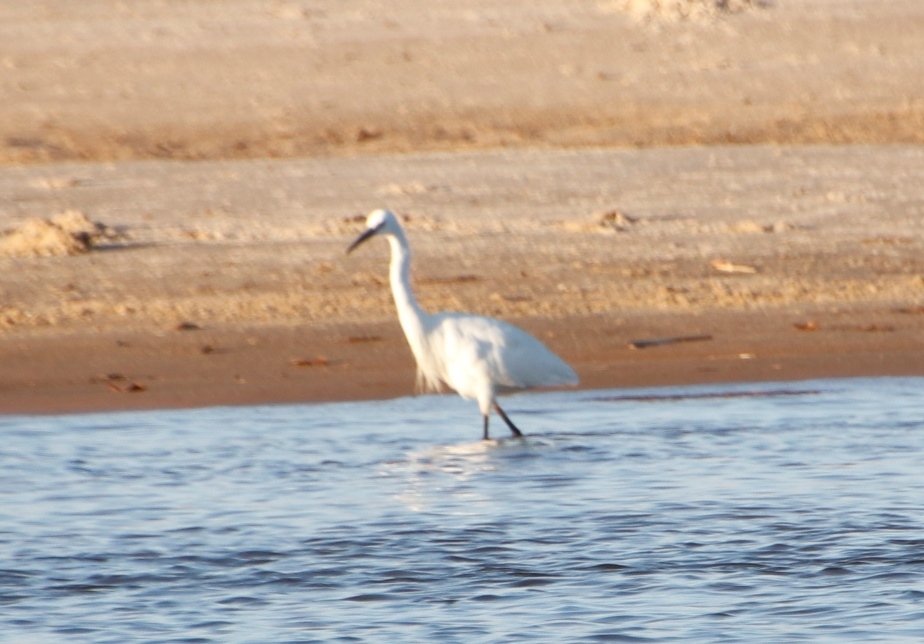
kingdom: Animalia
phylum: Chordata
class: Aves
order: Pelecaniformes
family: Ardeidae
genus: Egretta
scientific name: Egretta garzetta
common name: Little egret
